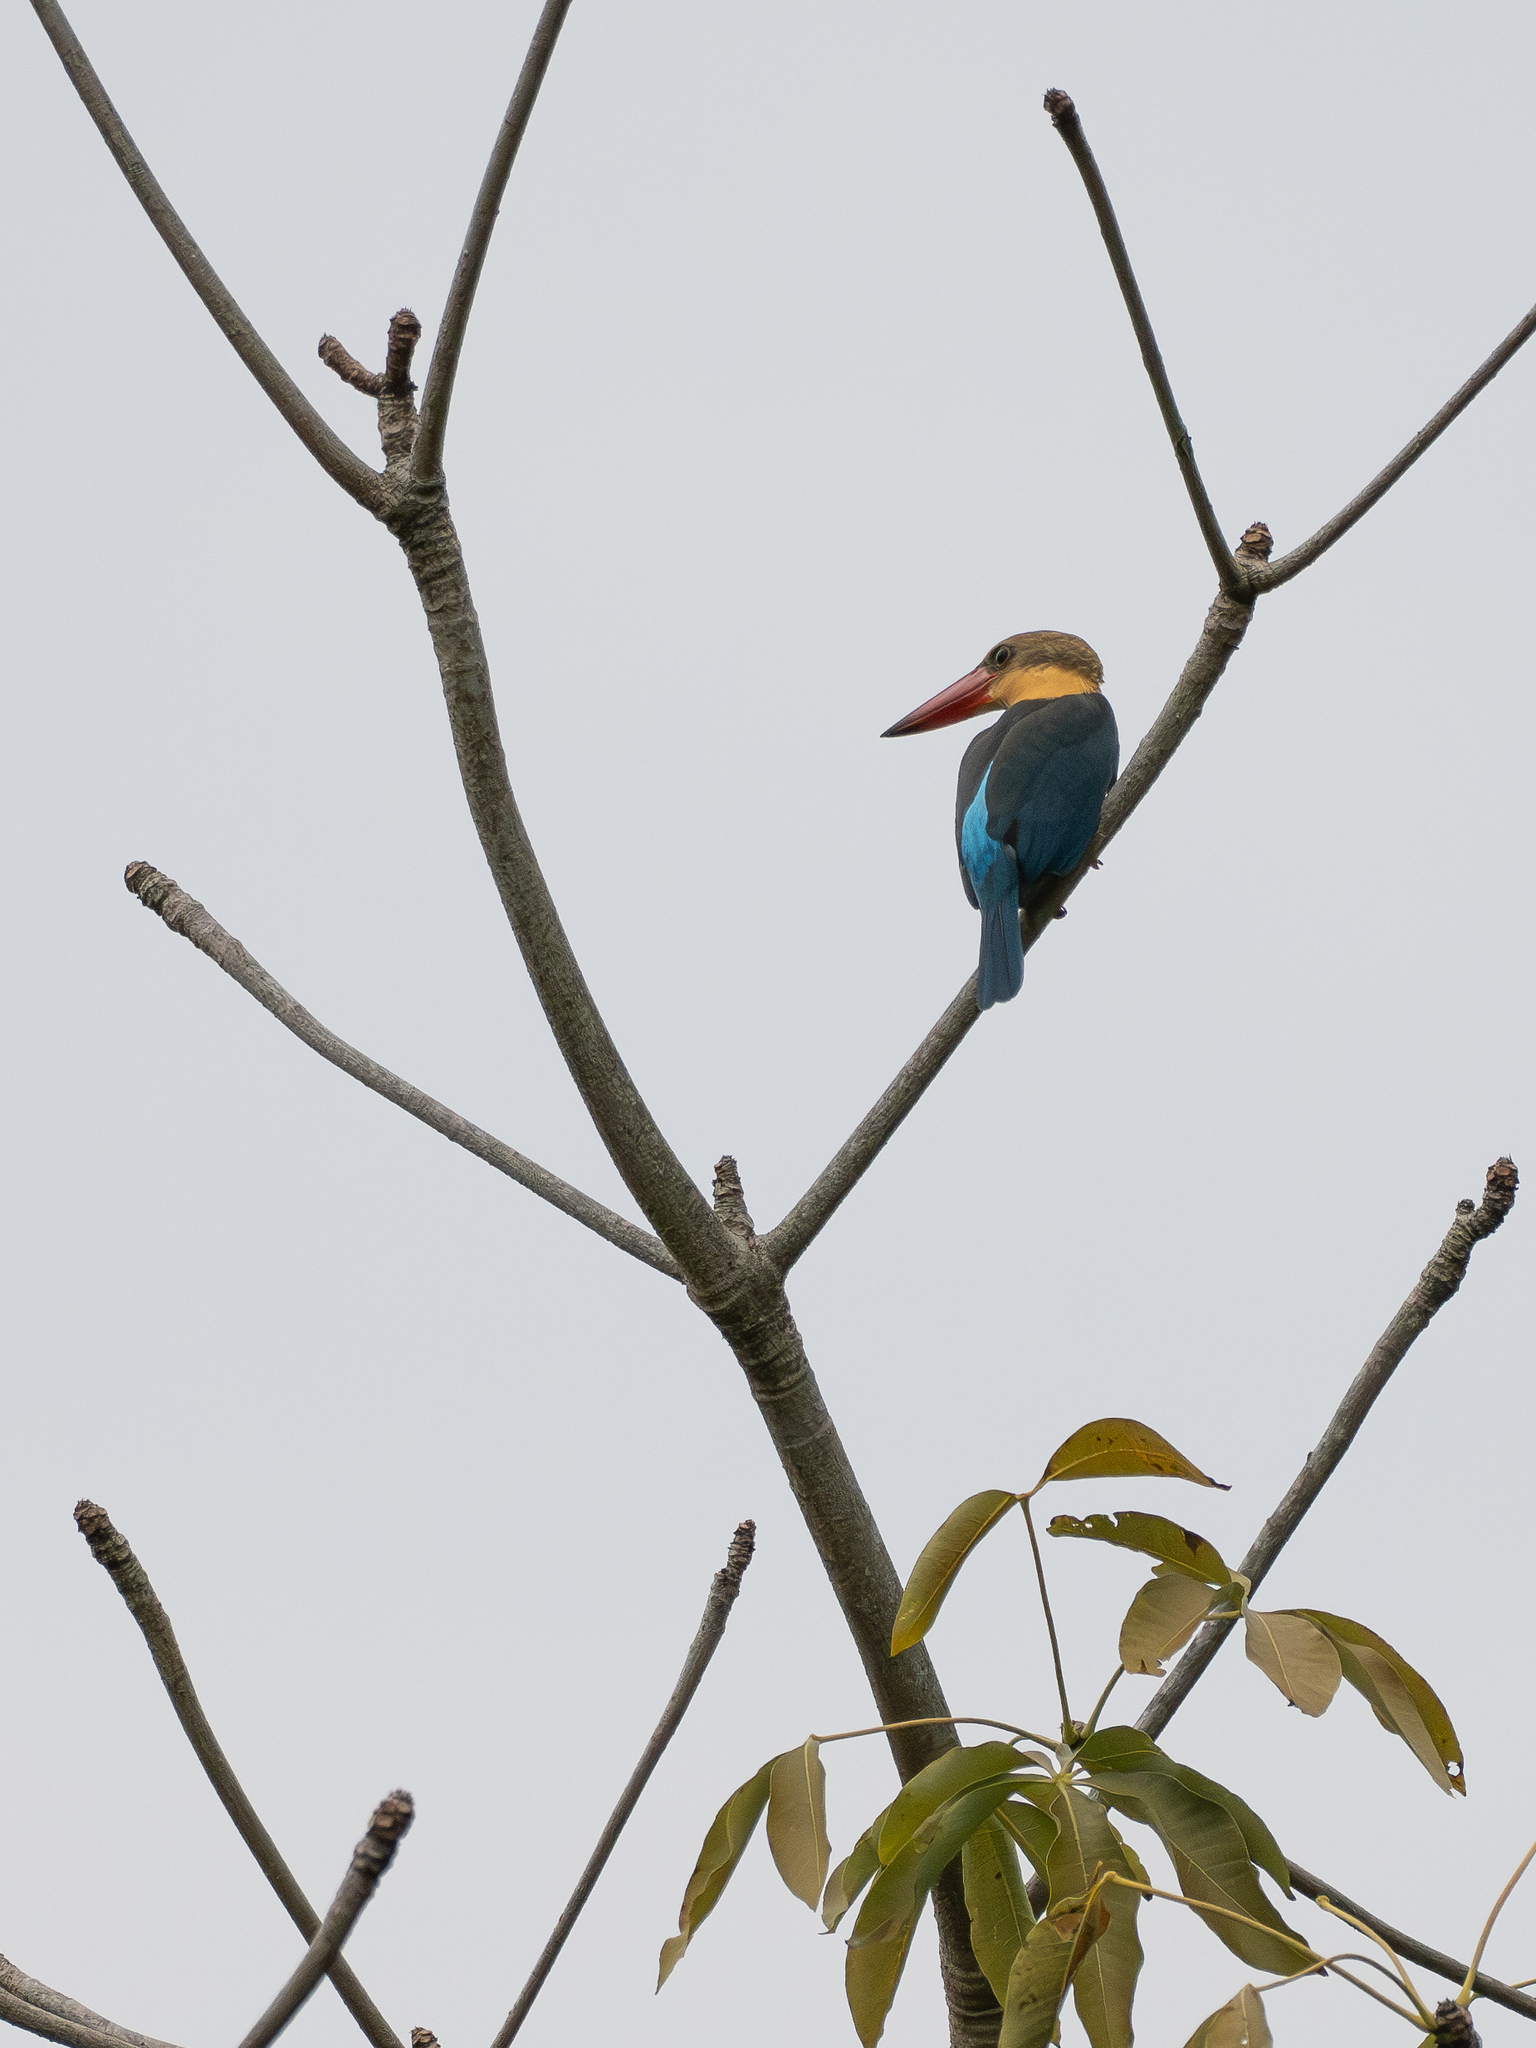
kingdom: Animalia
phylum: Chordata
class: Aves
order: Coraciiformes
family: Alcedinidae
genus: Pelargopsis
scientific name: Pelargopsis capensis
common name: Stork-billed kingfisher
